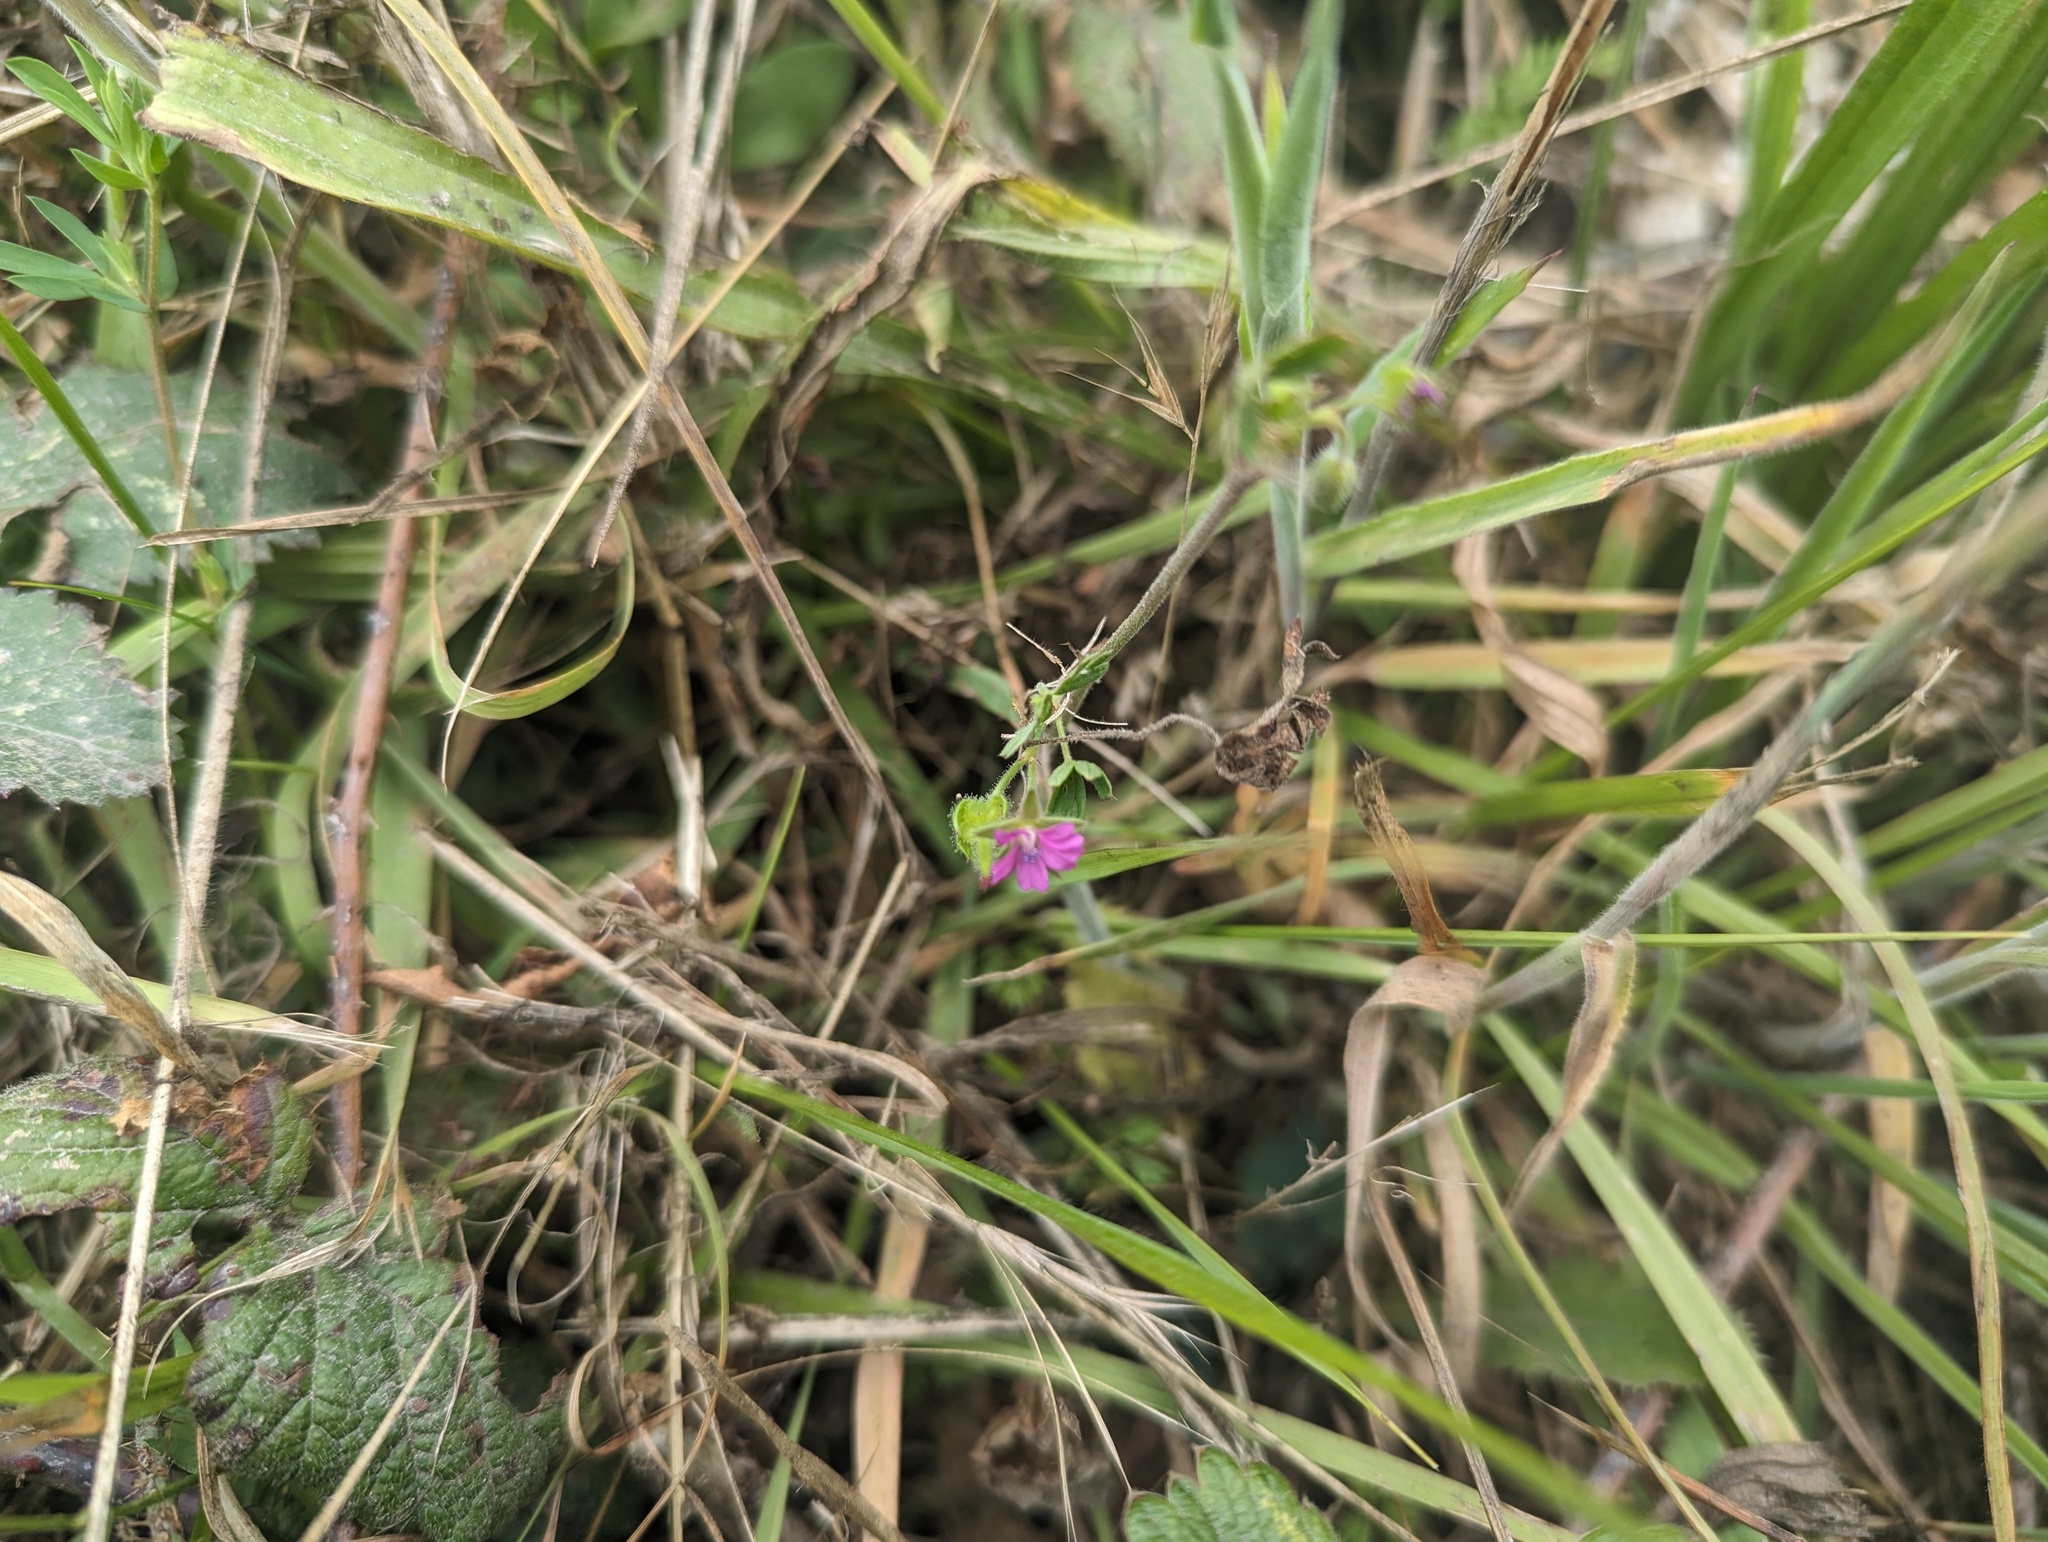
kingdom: Plantae
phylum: Tracheophyta
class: Magnoliopsida
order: Geraniales
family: Geraniaceae
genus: Geranium
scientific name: Geranium dissectum
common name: Cut-leaved crane's-bill
